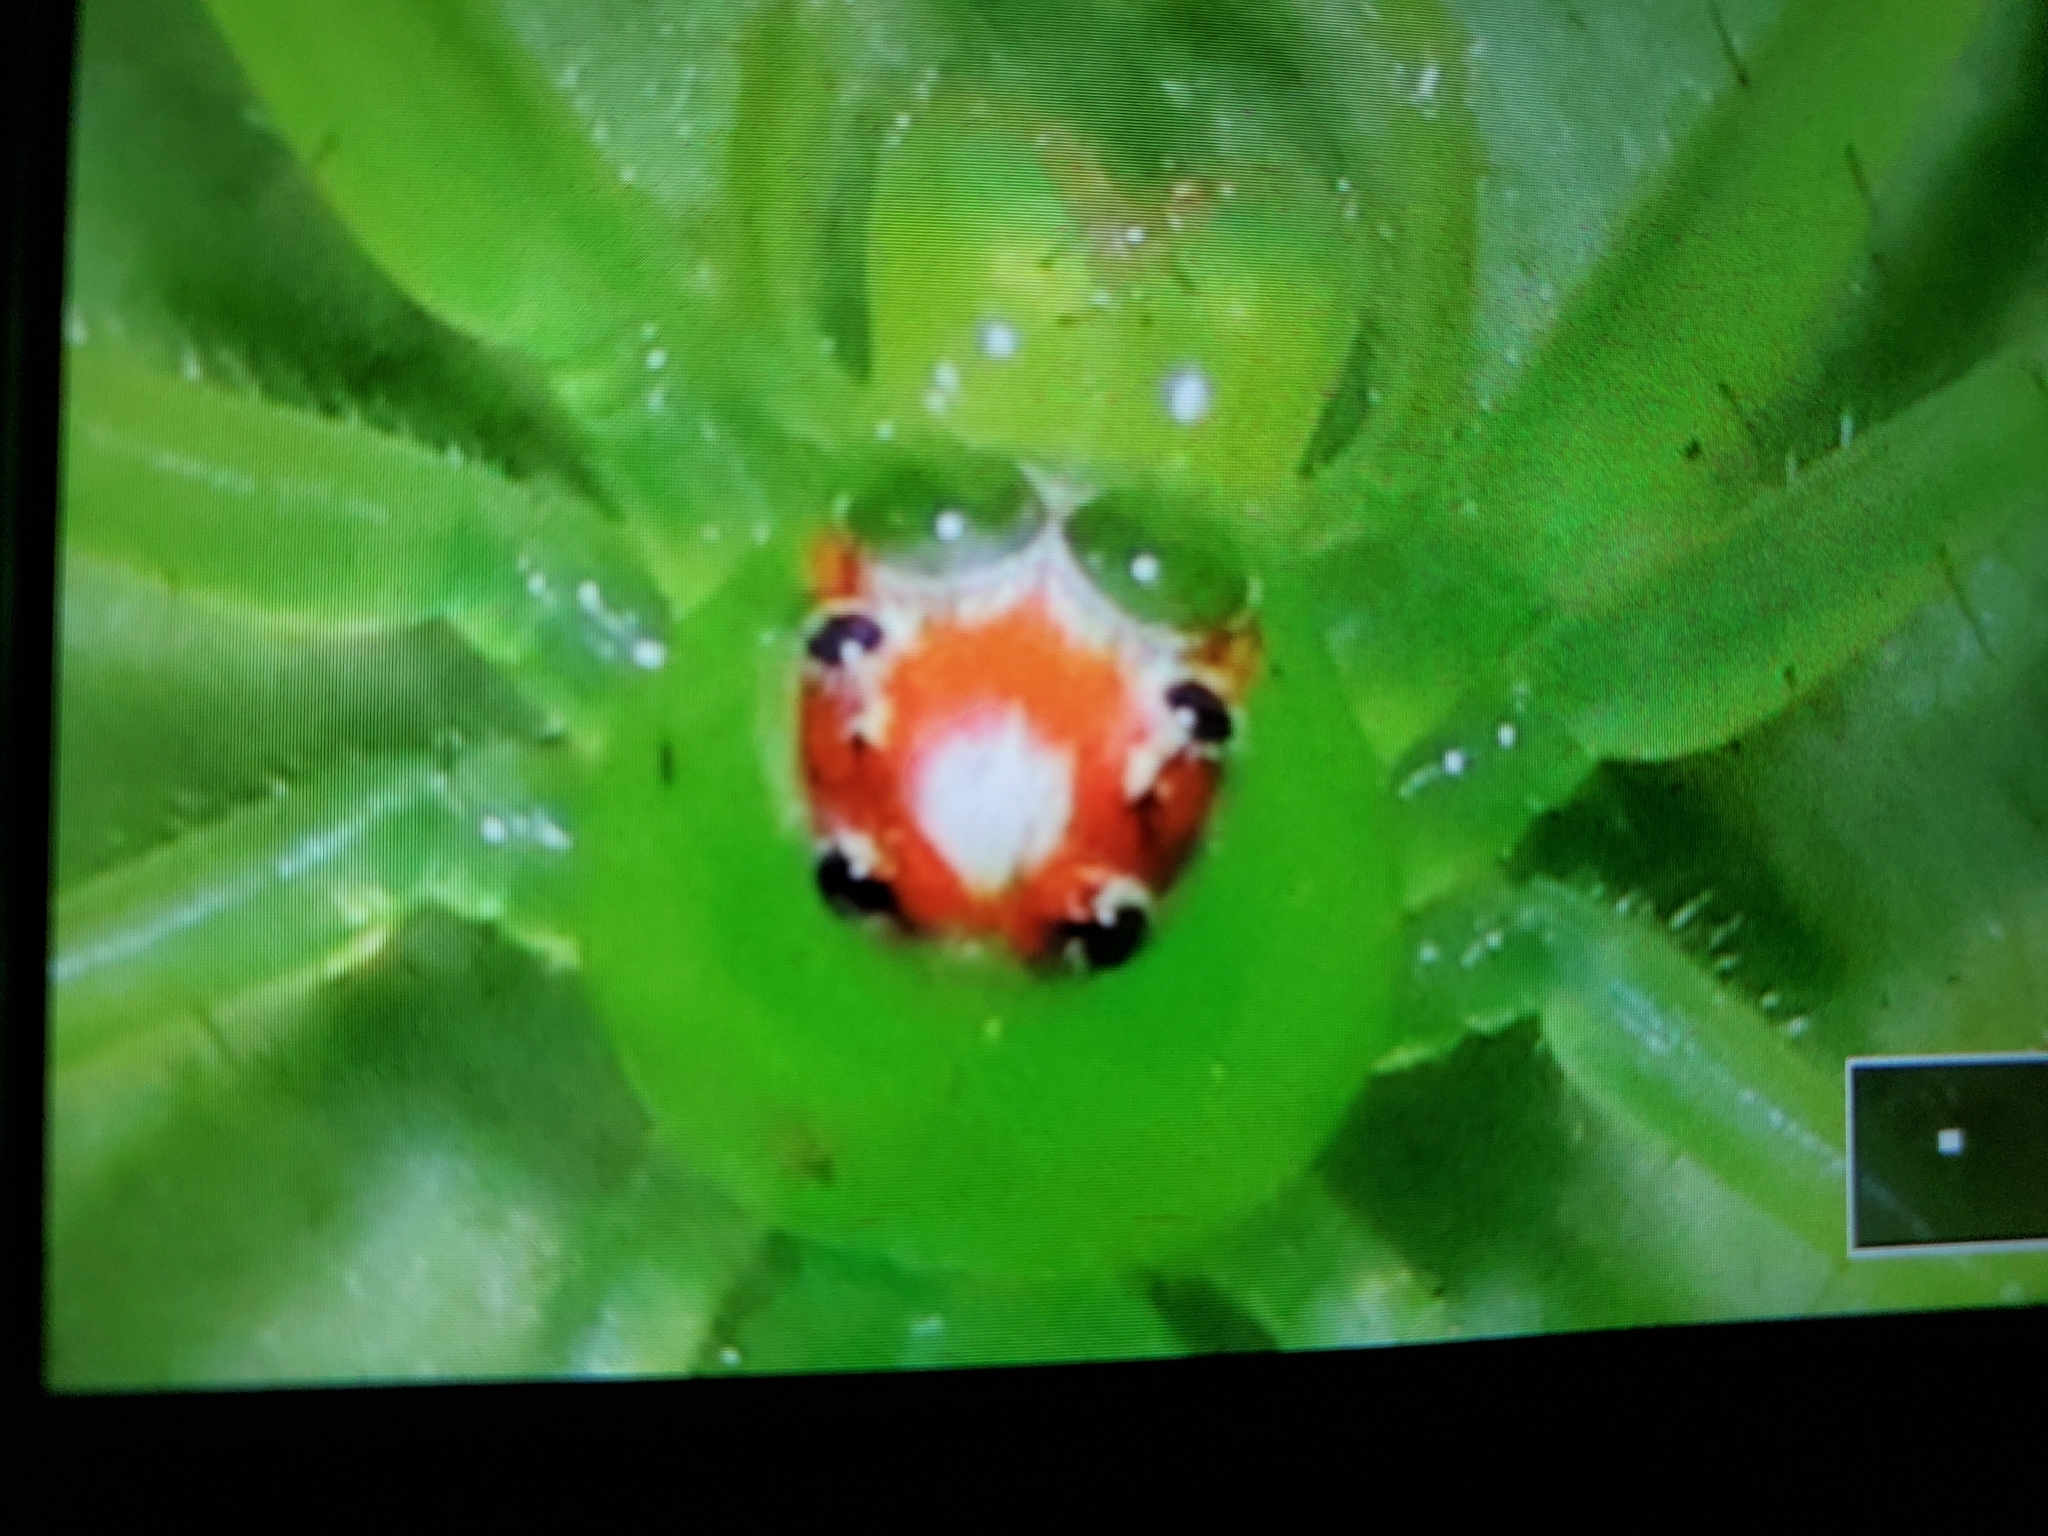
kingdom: Animalia
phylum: Arthropoda
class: Arachnida
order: Araneae
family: Salticidae
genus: Lyssomanes
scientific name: Lyssomanes viridis
